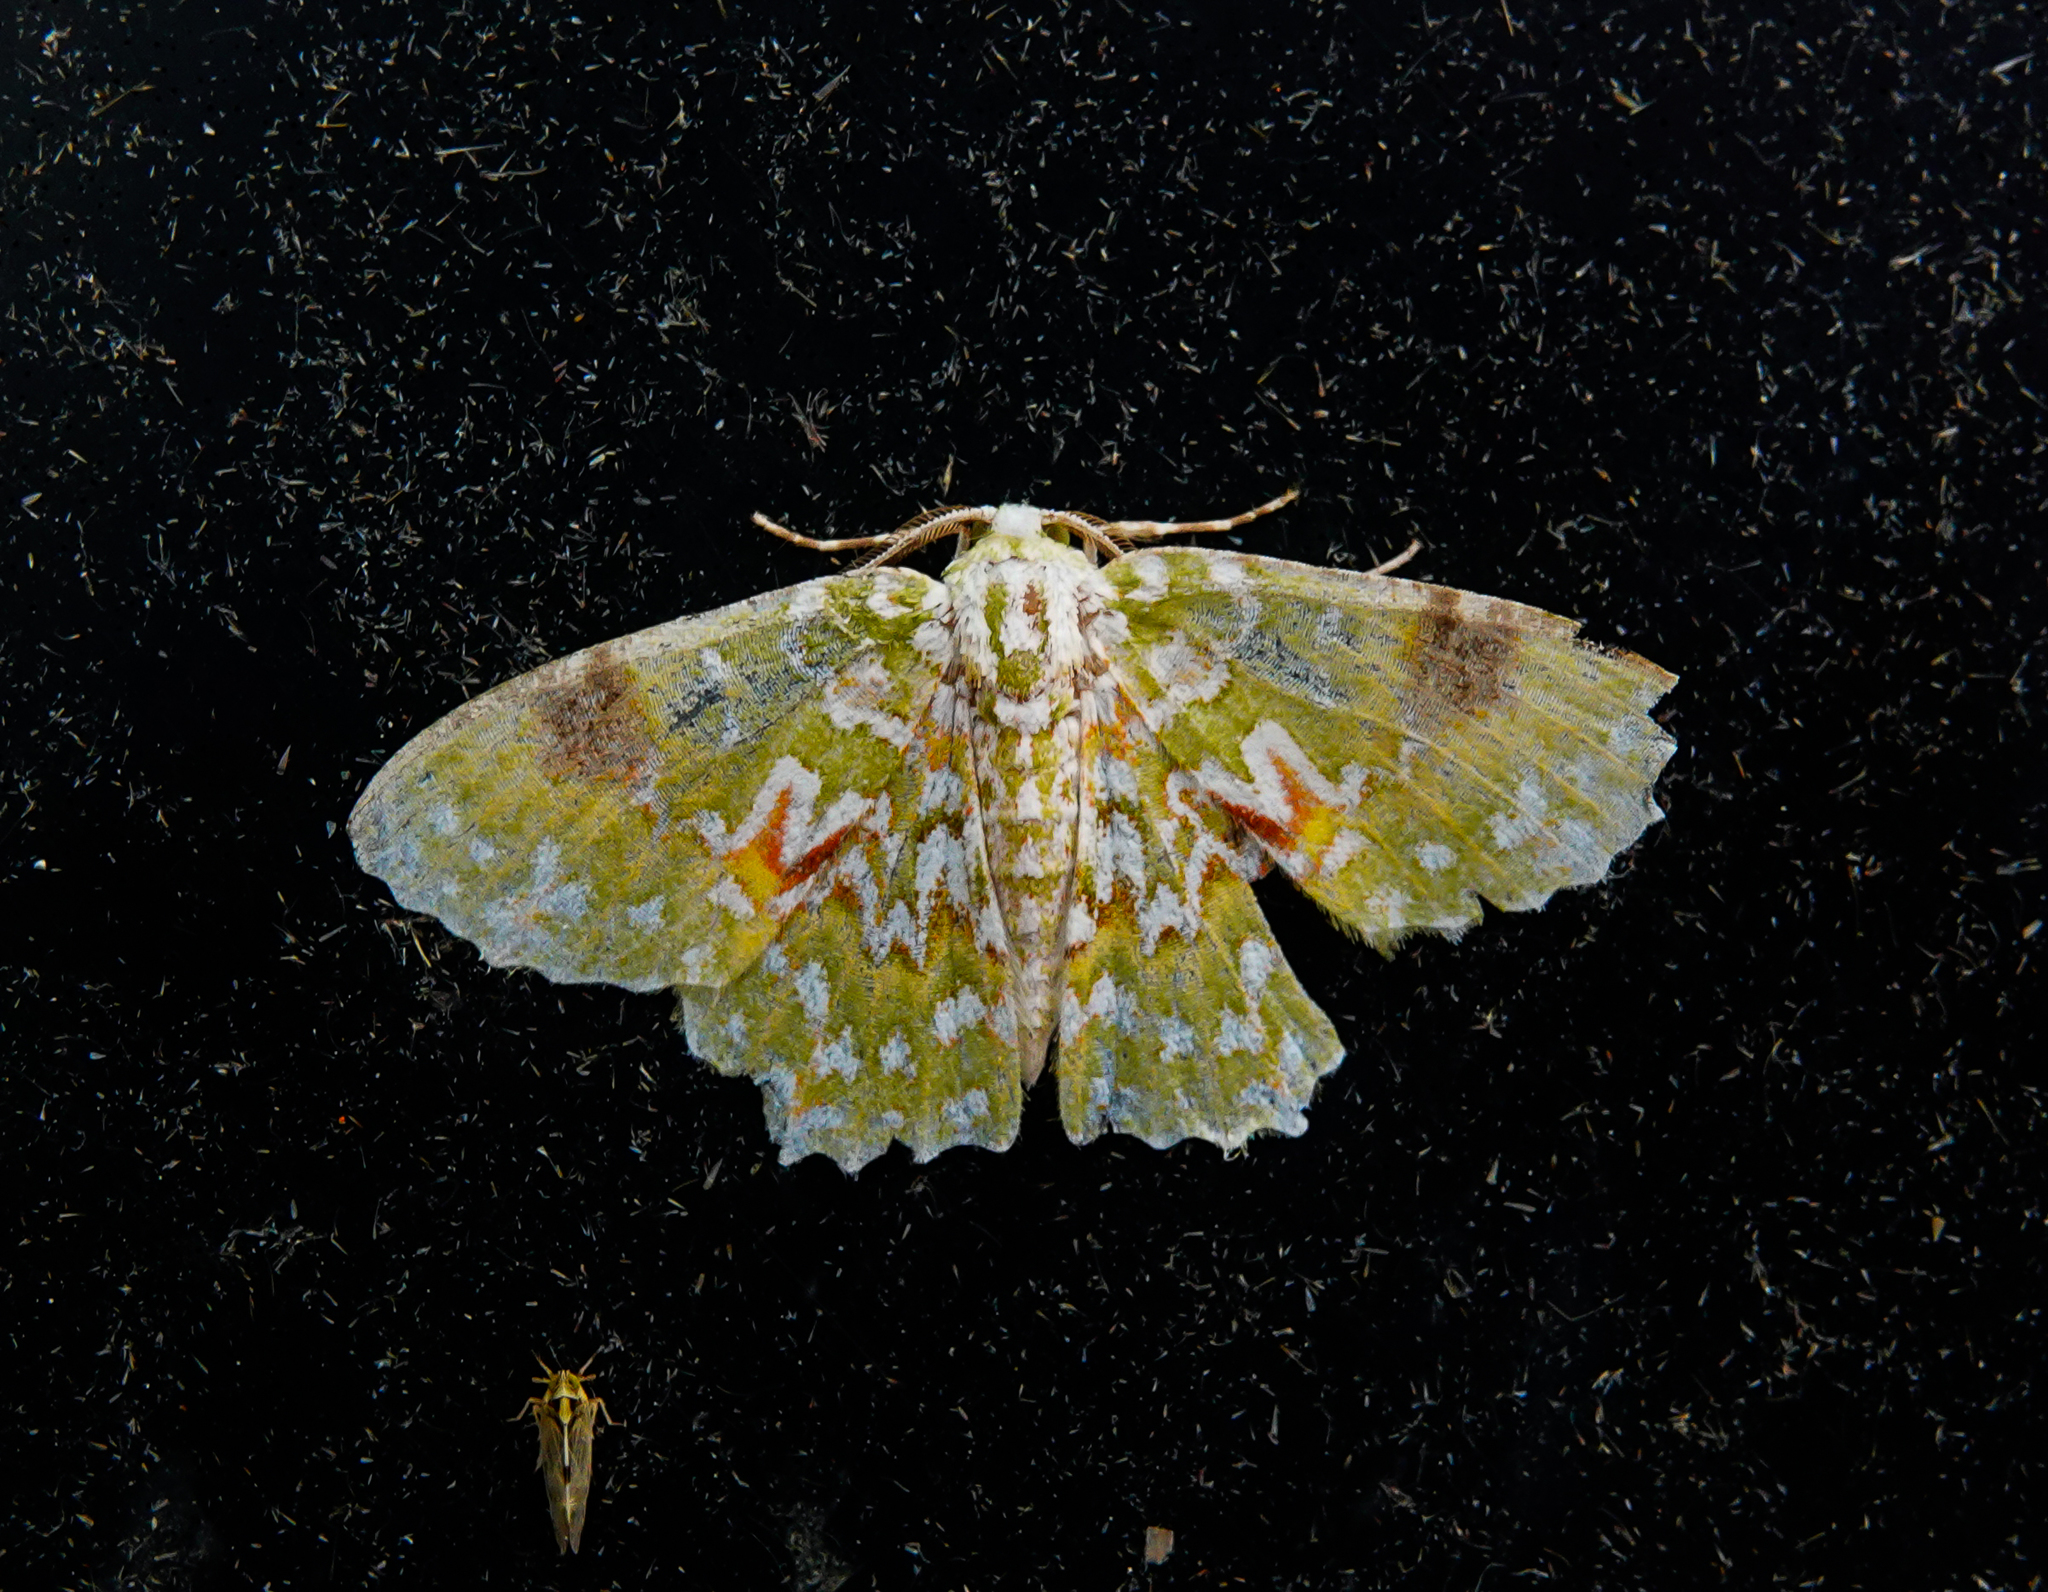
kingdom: Animalia
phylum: Arthropoda
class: Insecta
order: Lepidoptera
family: Geometridae
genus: Eucyclodes
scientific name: Eucyclodes gavissima
